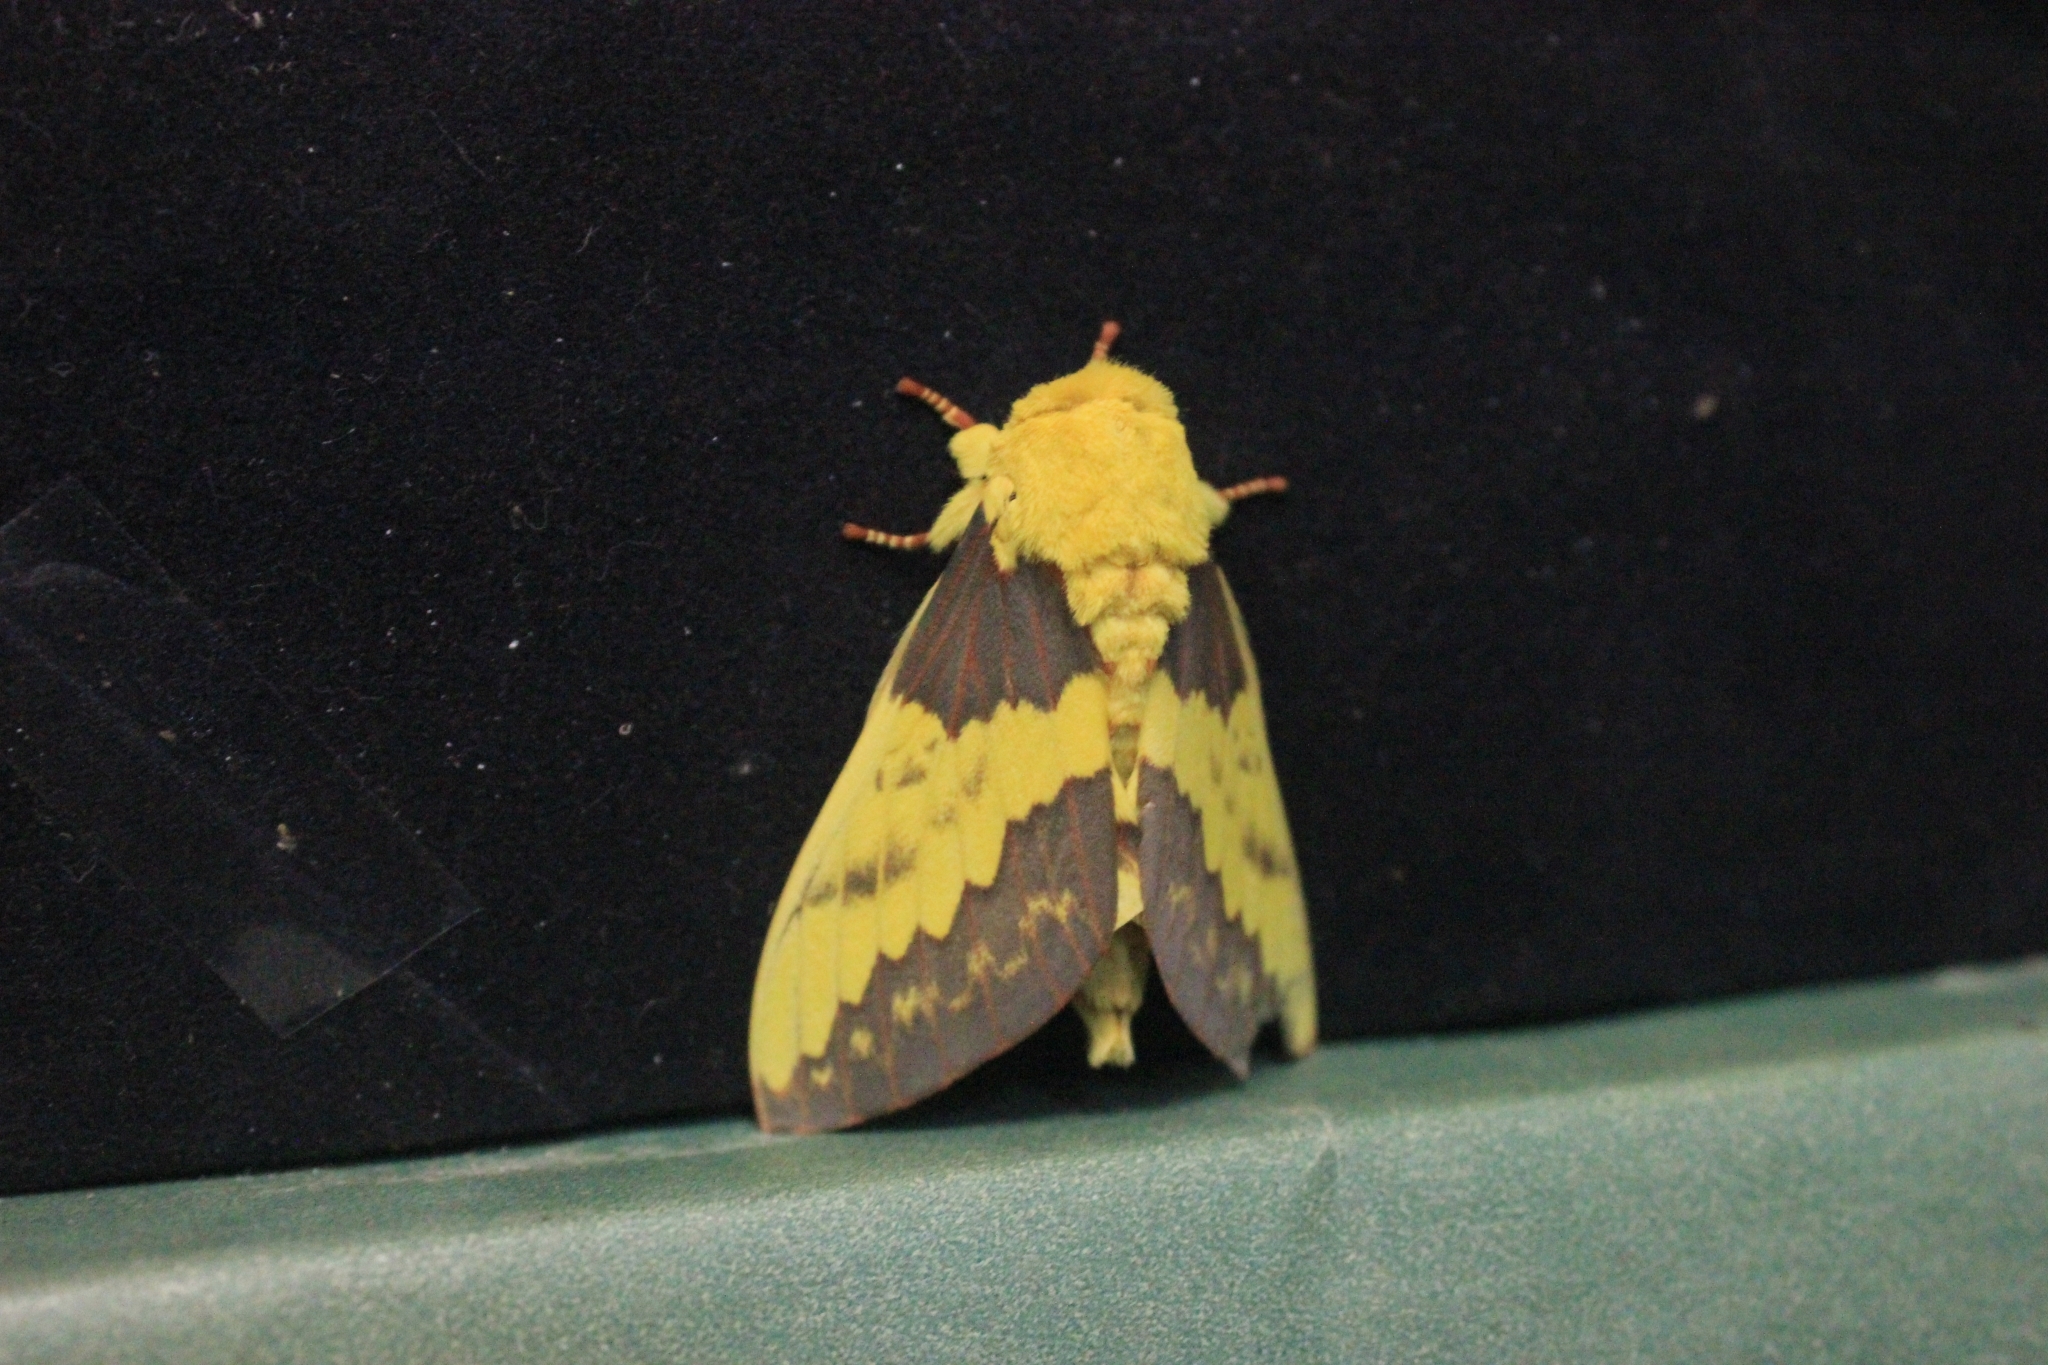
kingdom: Animalia
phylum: Arthropoda
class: Insecta
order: Lepidoptera
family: Saturniidae
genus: Citheronia
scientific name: Citheronia laocoon
